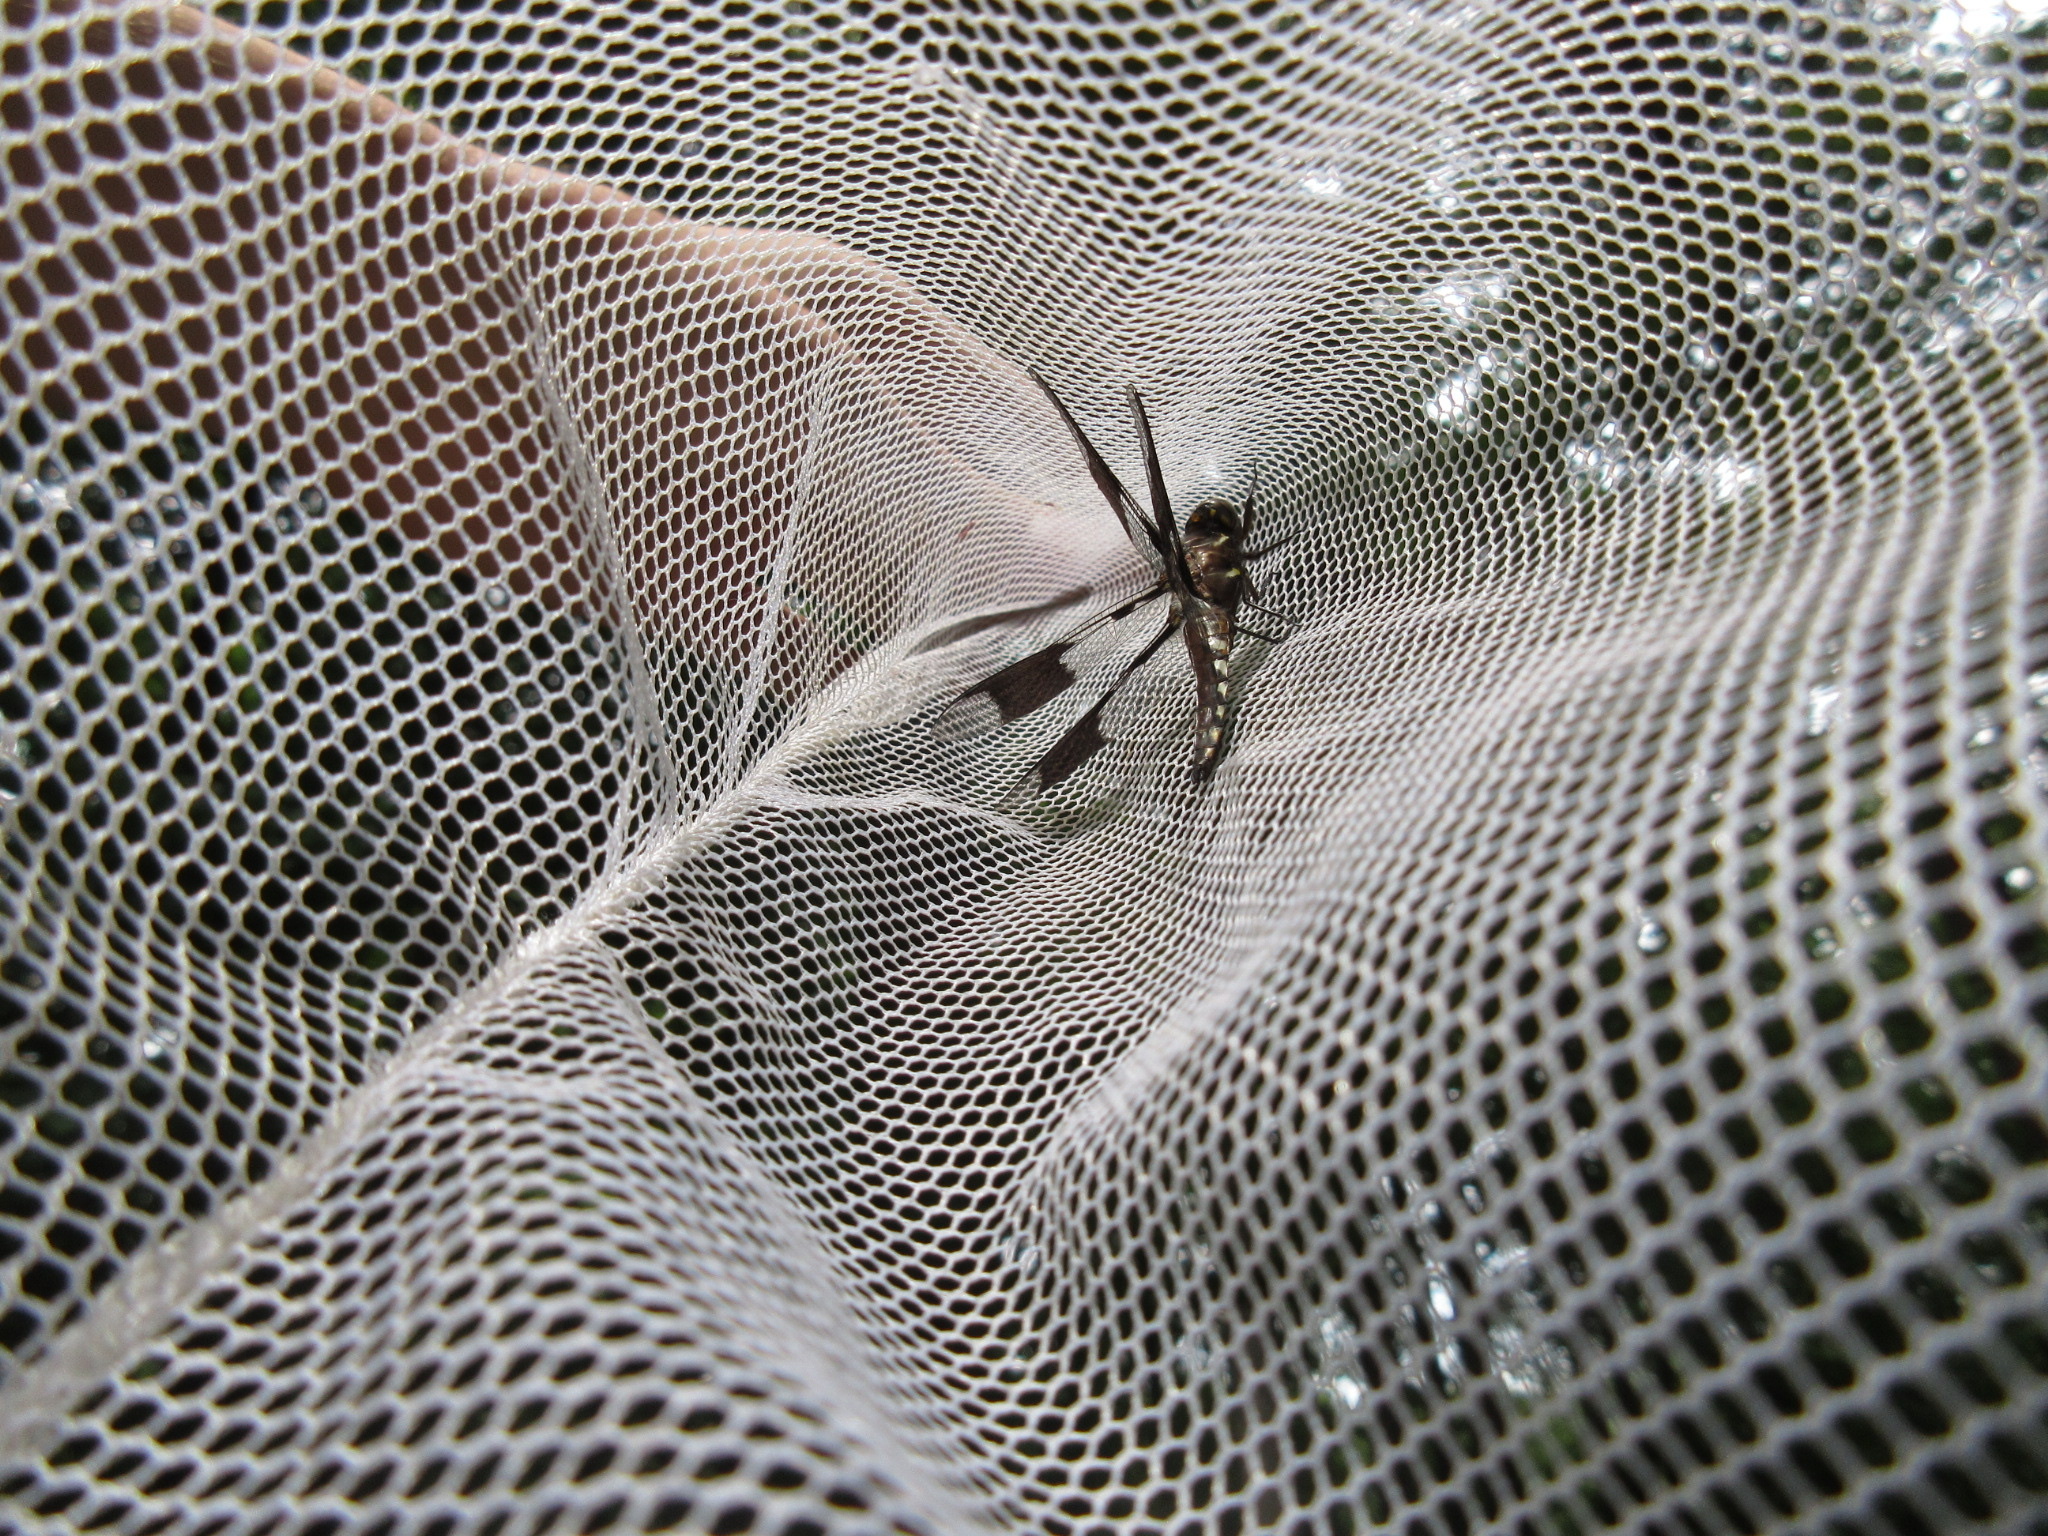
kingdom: Animalia
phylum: Arthropoda
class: Insecta
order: Odonata
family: Libellulidae
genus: Plathemis
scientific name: Plathemis lydia
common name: Common whitetail
